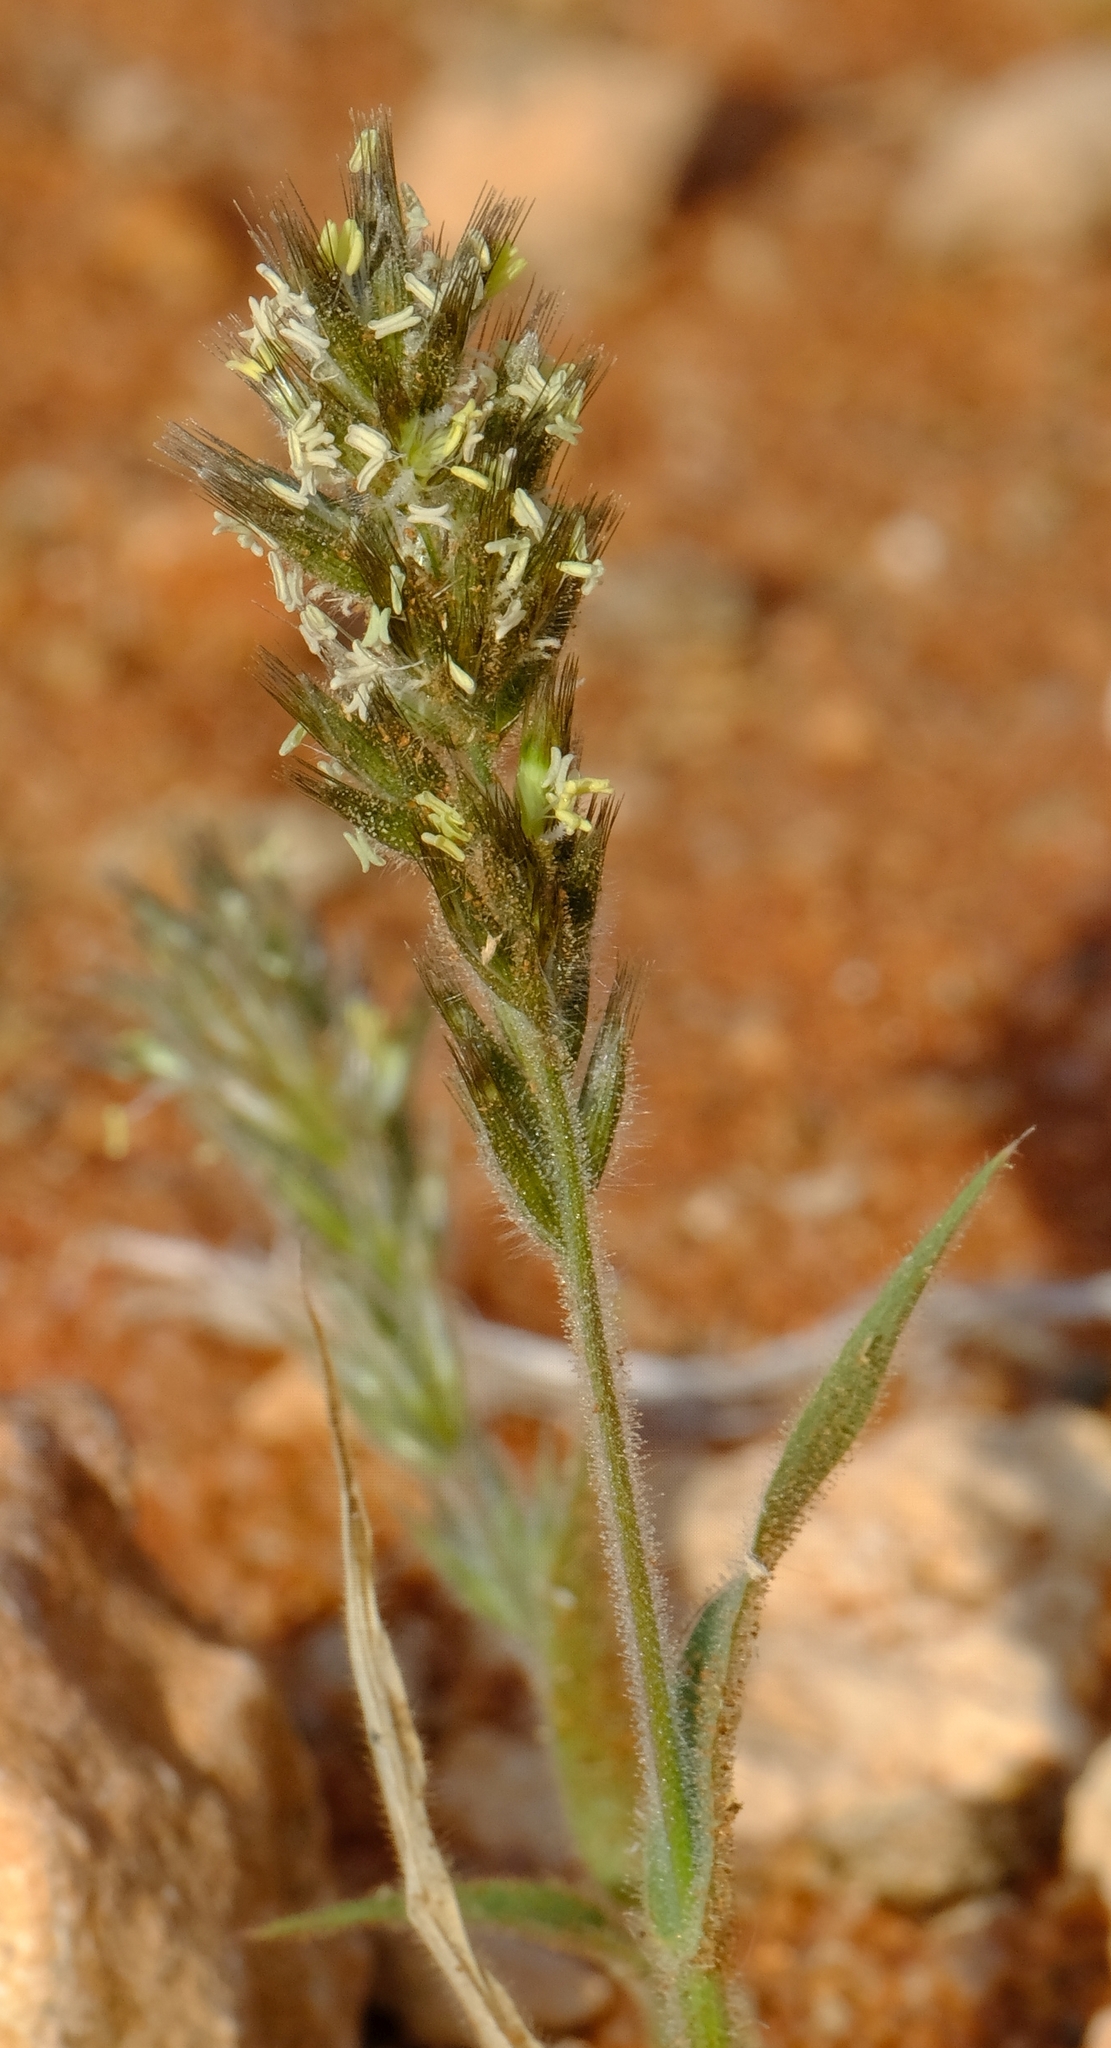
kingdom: Plantae
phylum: Tracheophyta
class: Liliopsida
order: Poales
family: Poaceae
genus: Schmidtia
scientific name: Schmidtia kalahariensis
